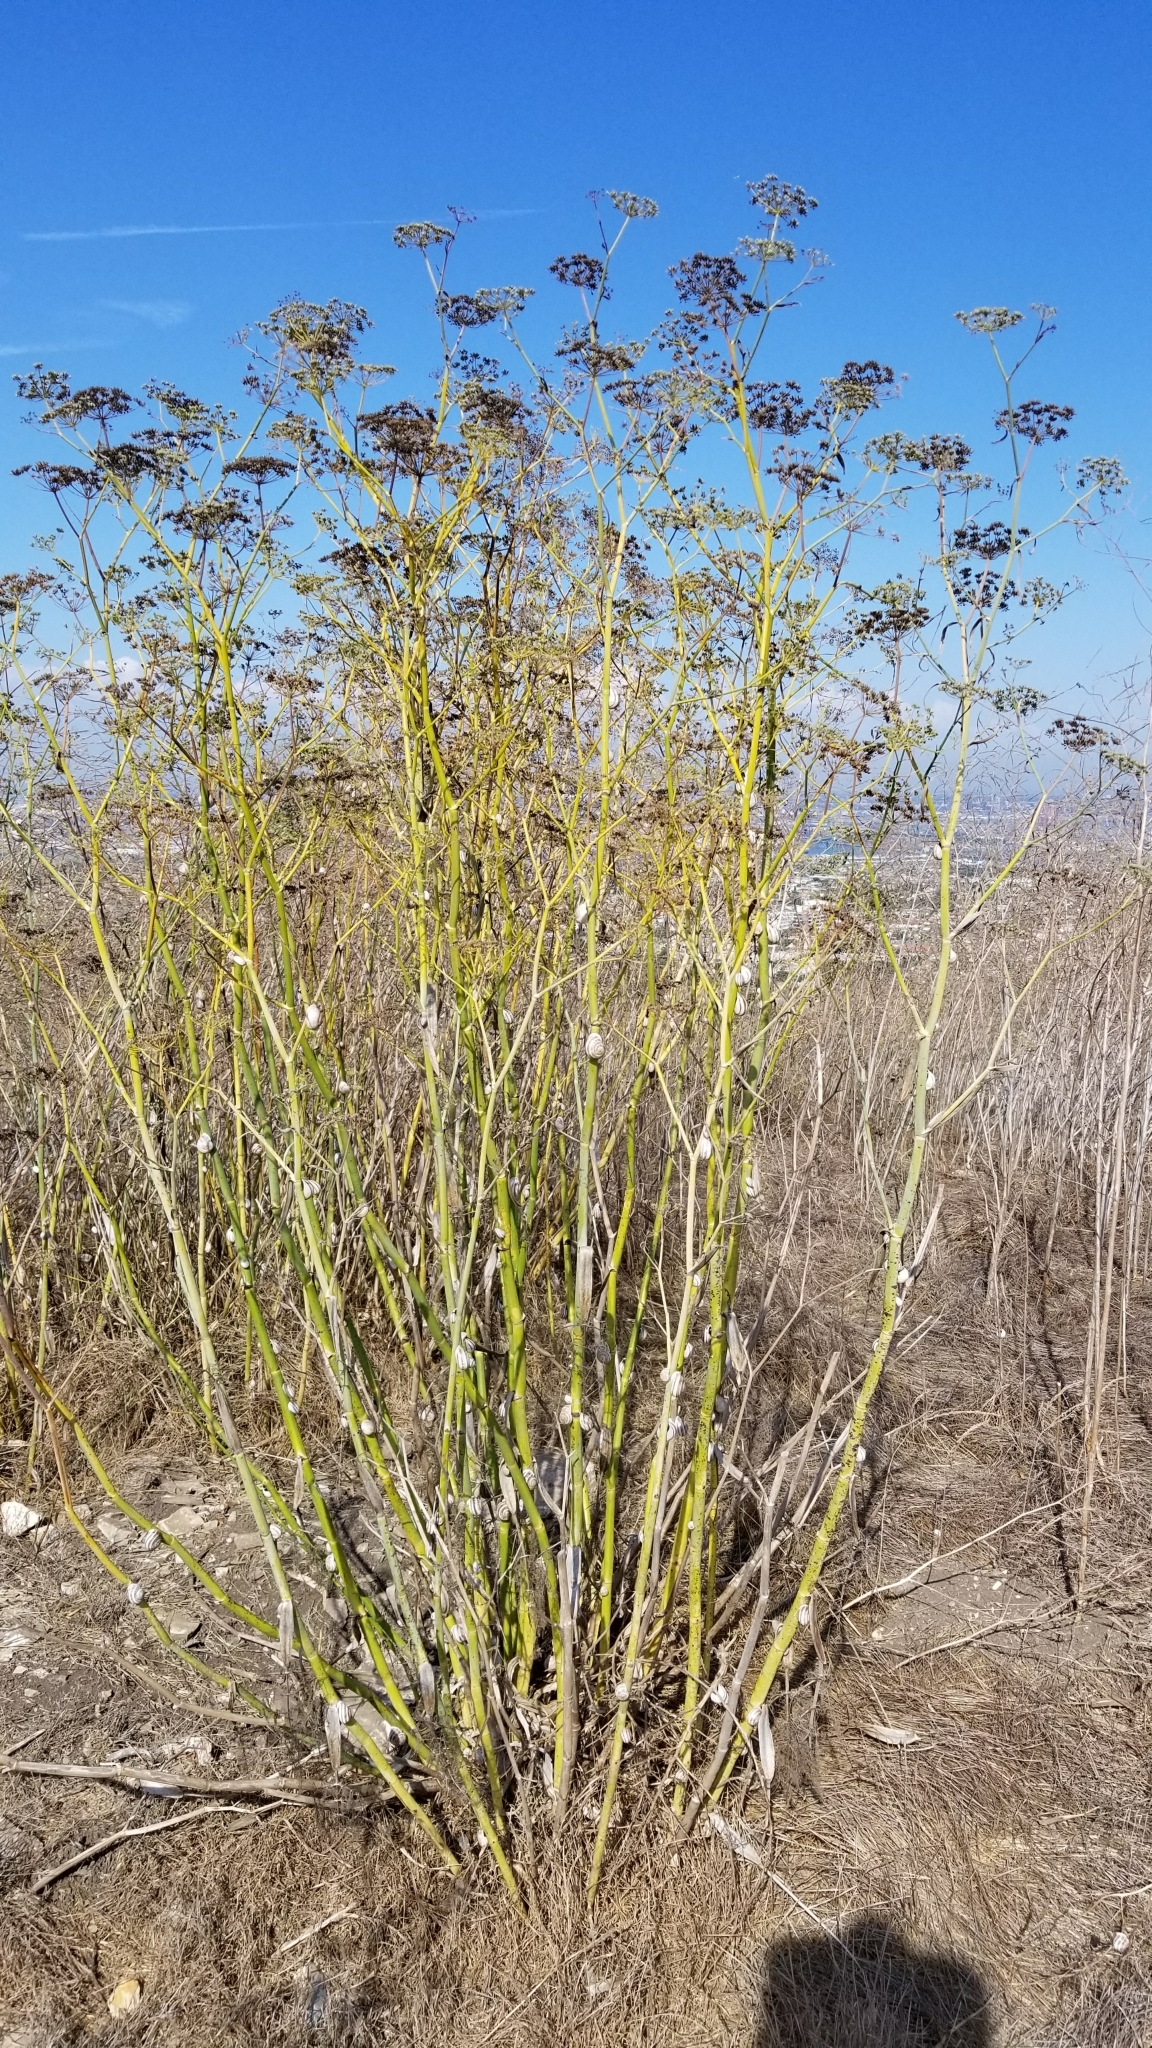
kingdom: Plantae
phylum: Tracheophyta
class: Magnoliopsida
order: Apiales
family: Apiaceae
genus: Foeniculum
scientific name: Foeniculum vulgare
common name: Fennel
